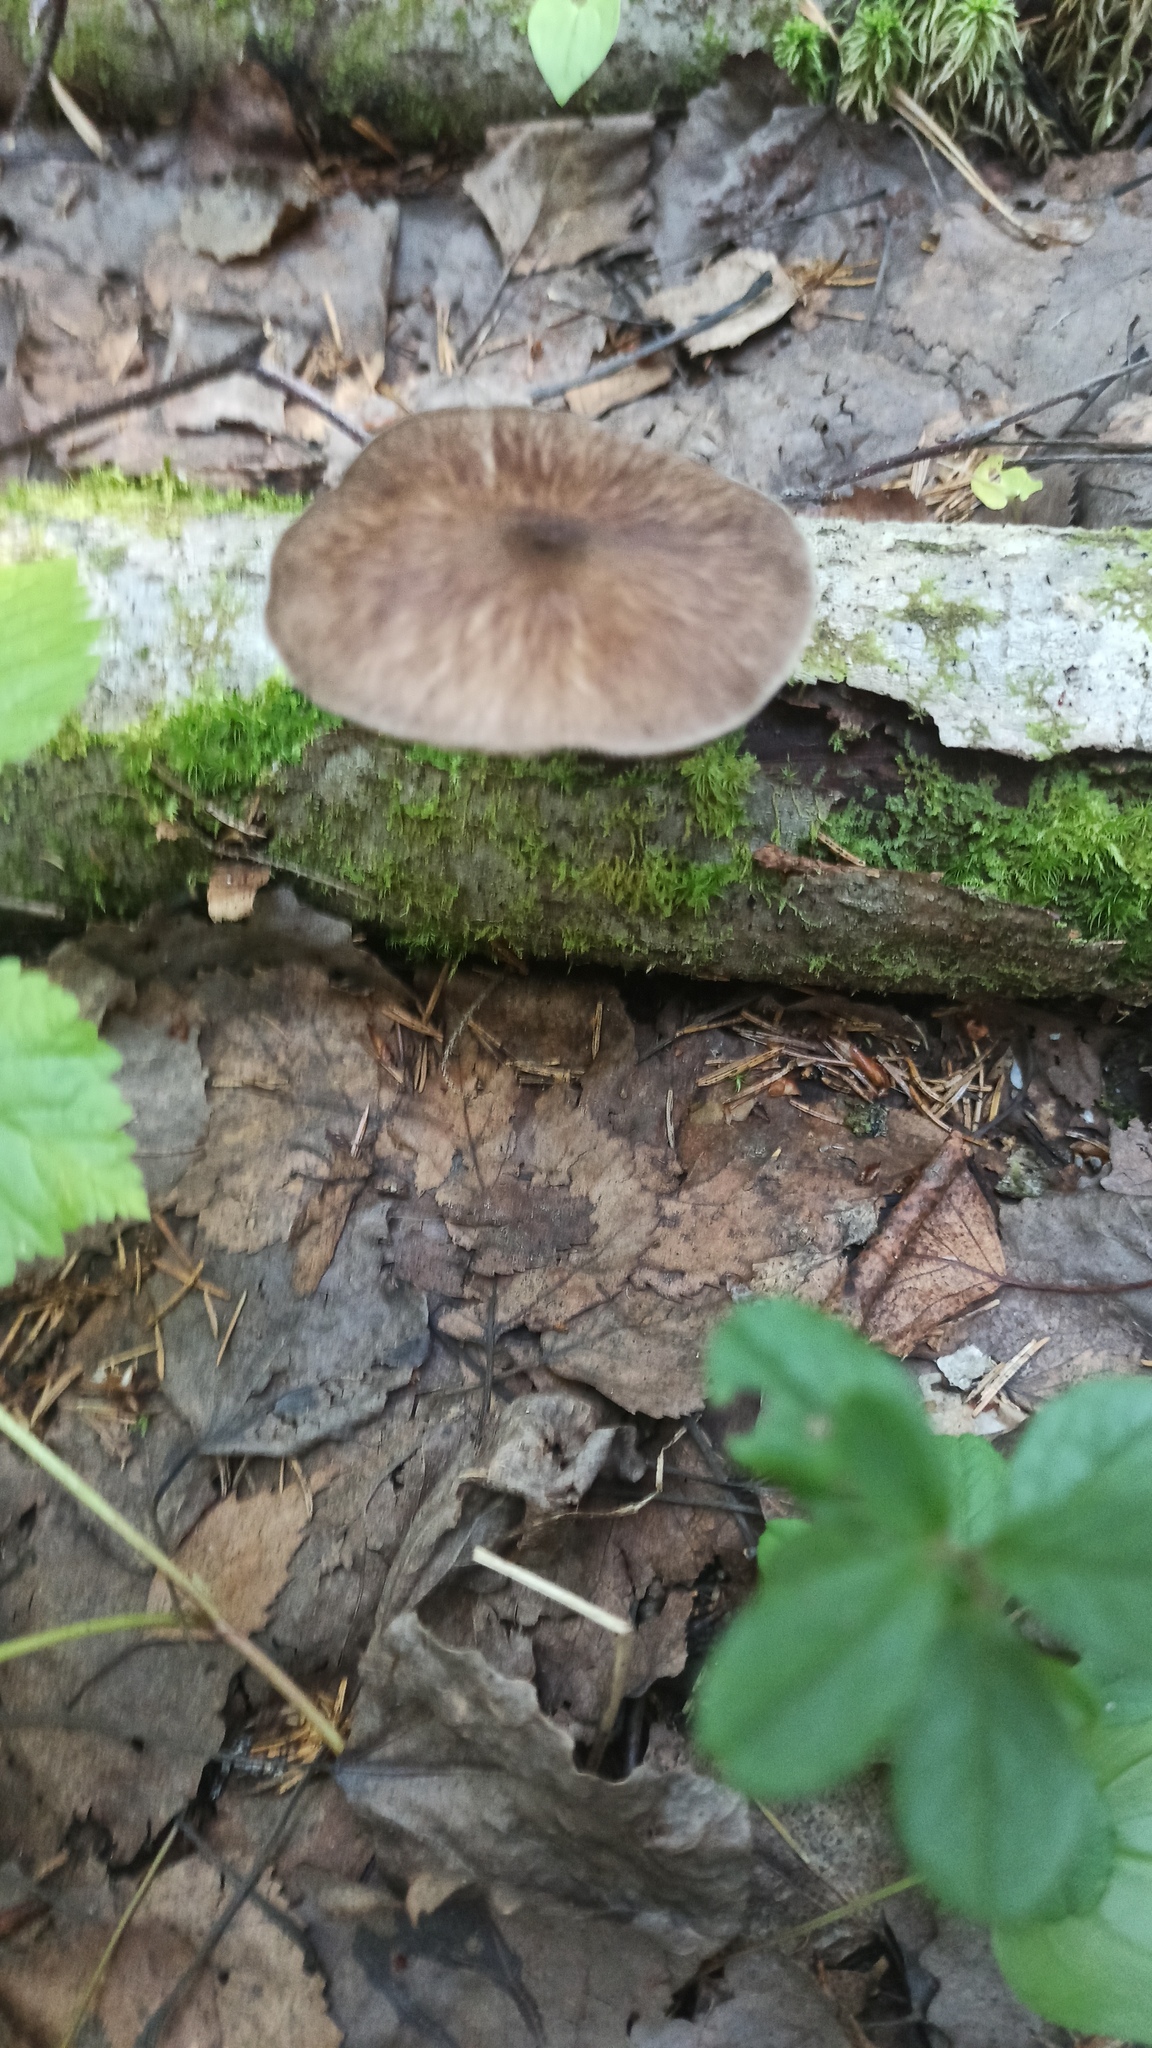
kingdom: Fungi
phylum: Basidiomycota
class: Agaricomycetes
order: Agaricales
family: Pluteaceae
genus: Pluteus
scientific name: Pluteus cervinus
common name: Deer shield
